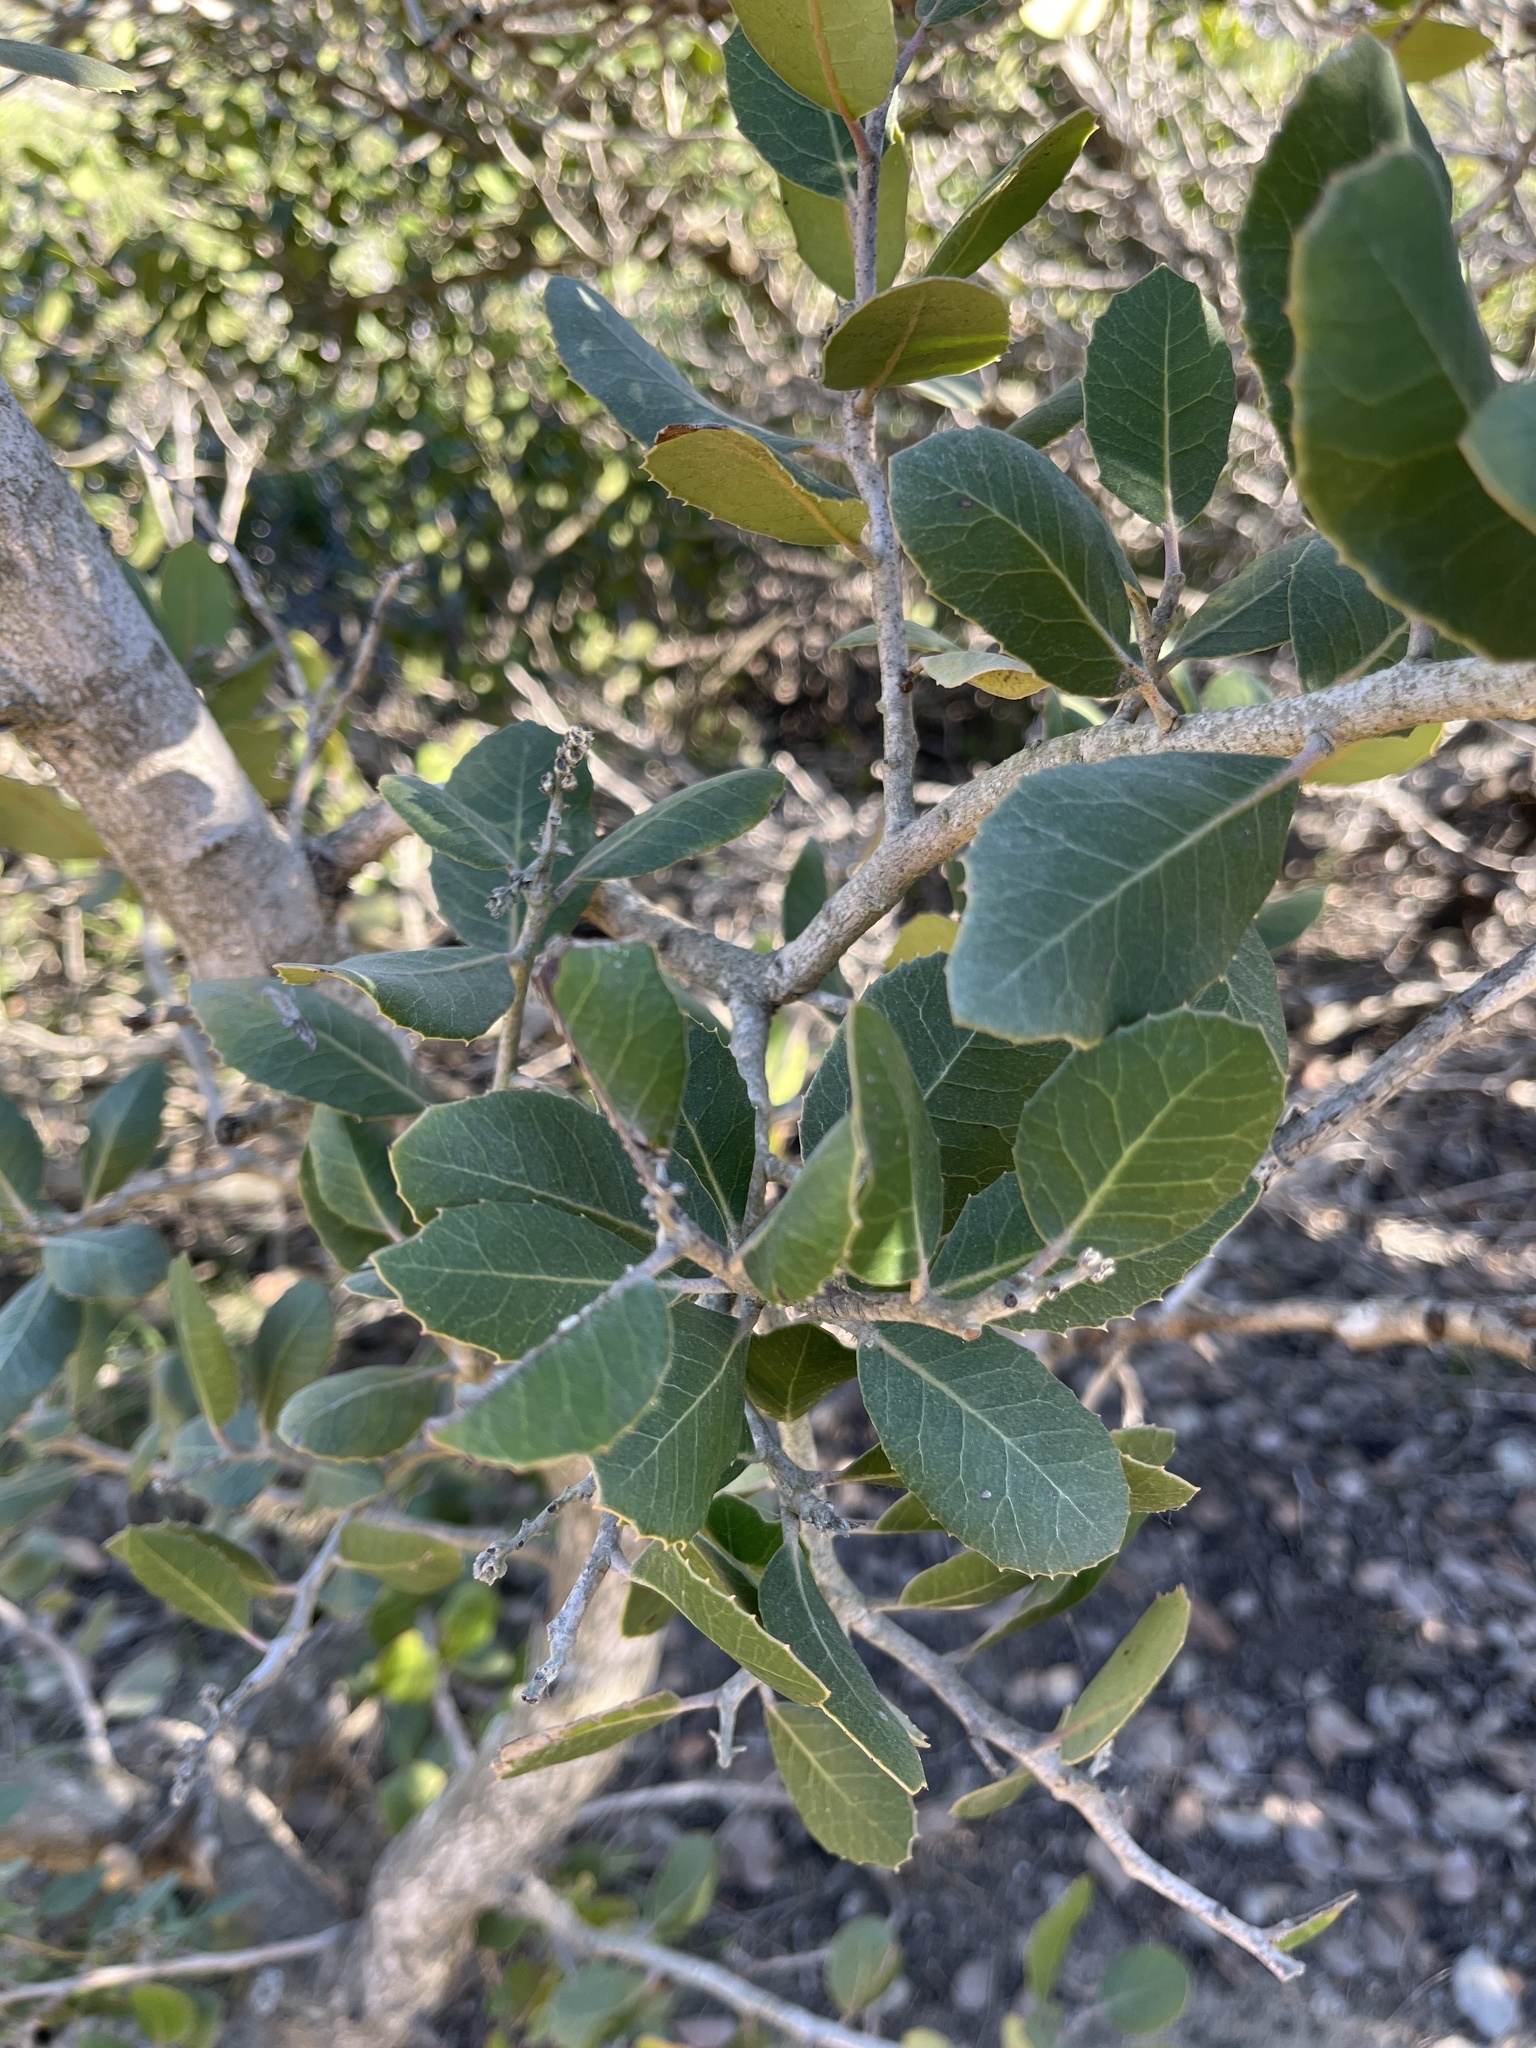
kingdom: Plantae
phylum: Tracheophyta
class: Magnoliopsida
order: Sapindales
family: Anacardiaceae
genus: Rhus
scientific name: Rhus integrifolia
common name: Lemonade sumac
